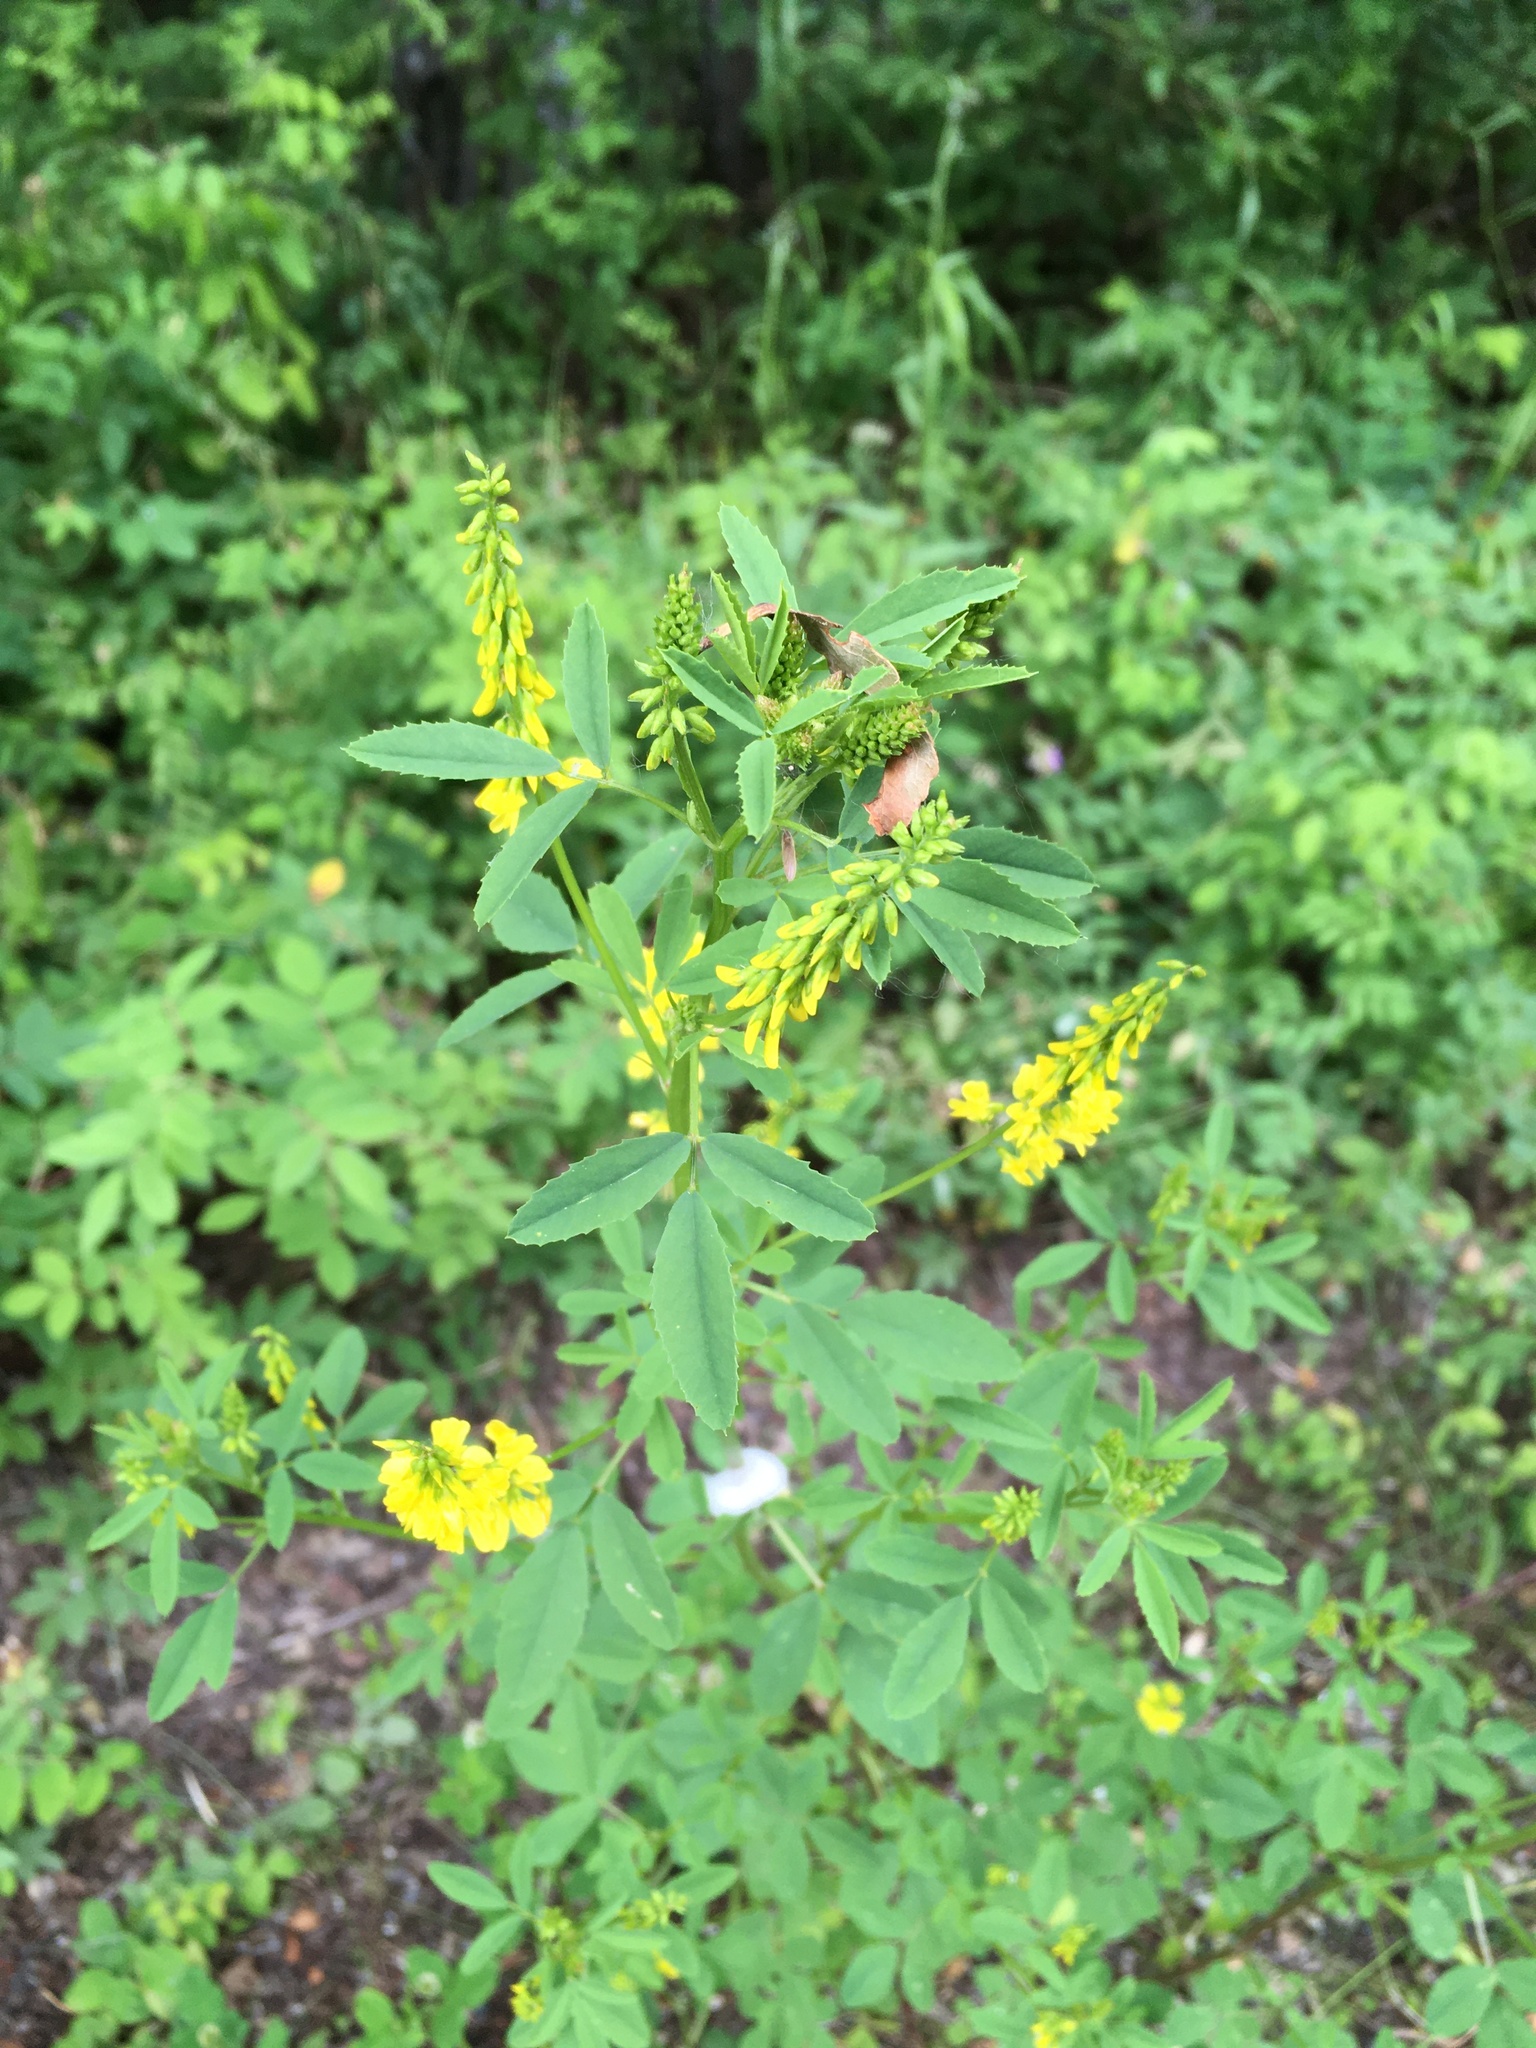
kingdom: Plantae
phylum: Tracheophyta
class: Magnoliopsida
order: Fabales
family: Fabaceae
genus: Melilotus
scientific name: Melilotus officinalis
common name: Sweetclover
